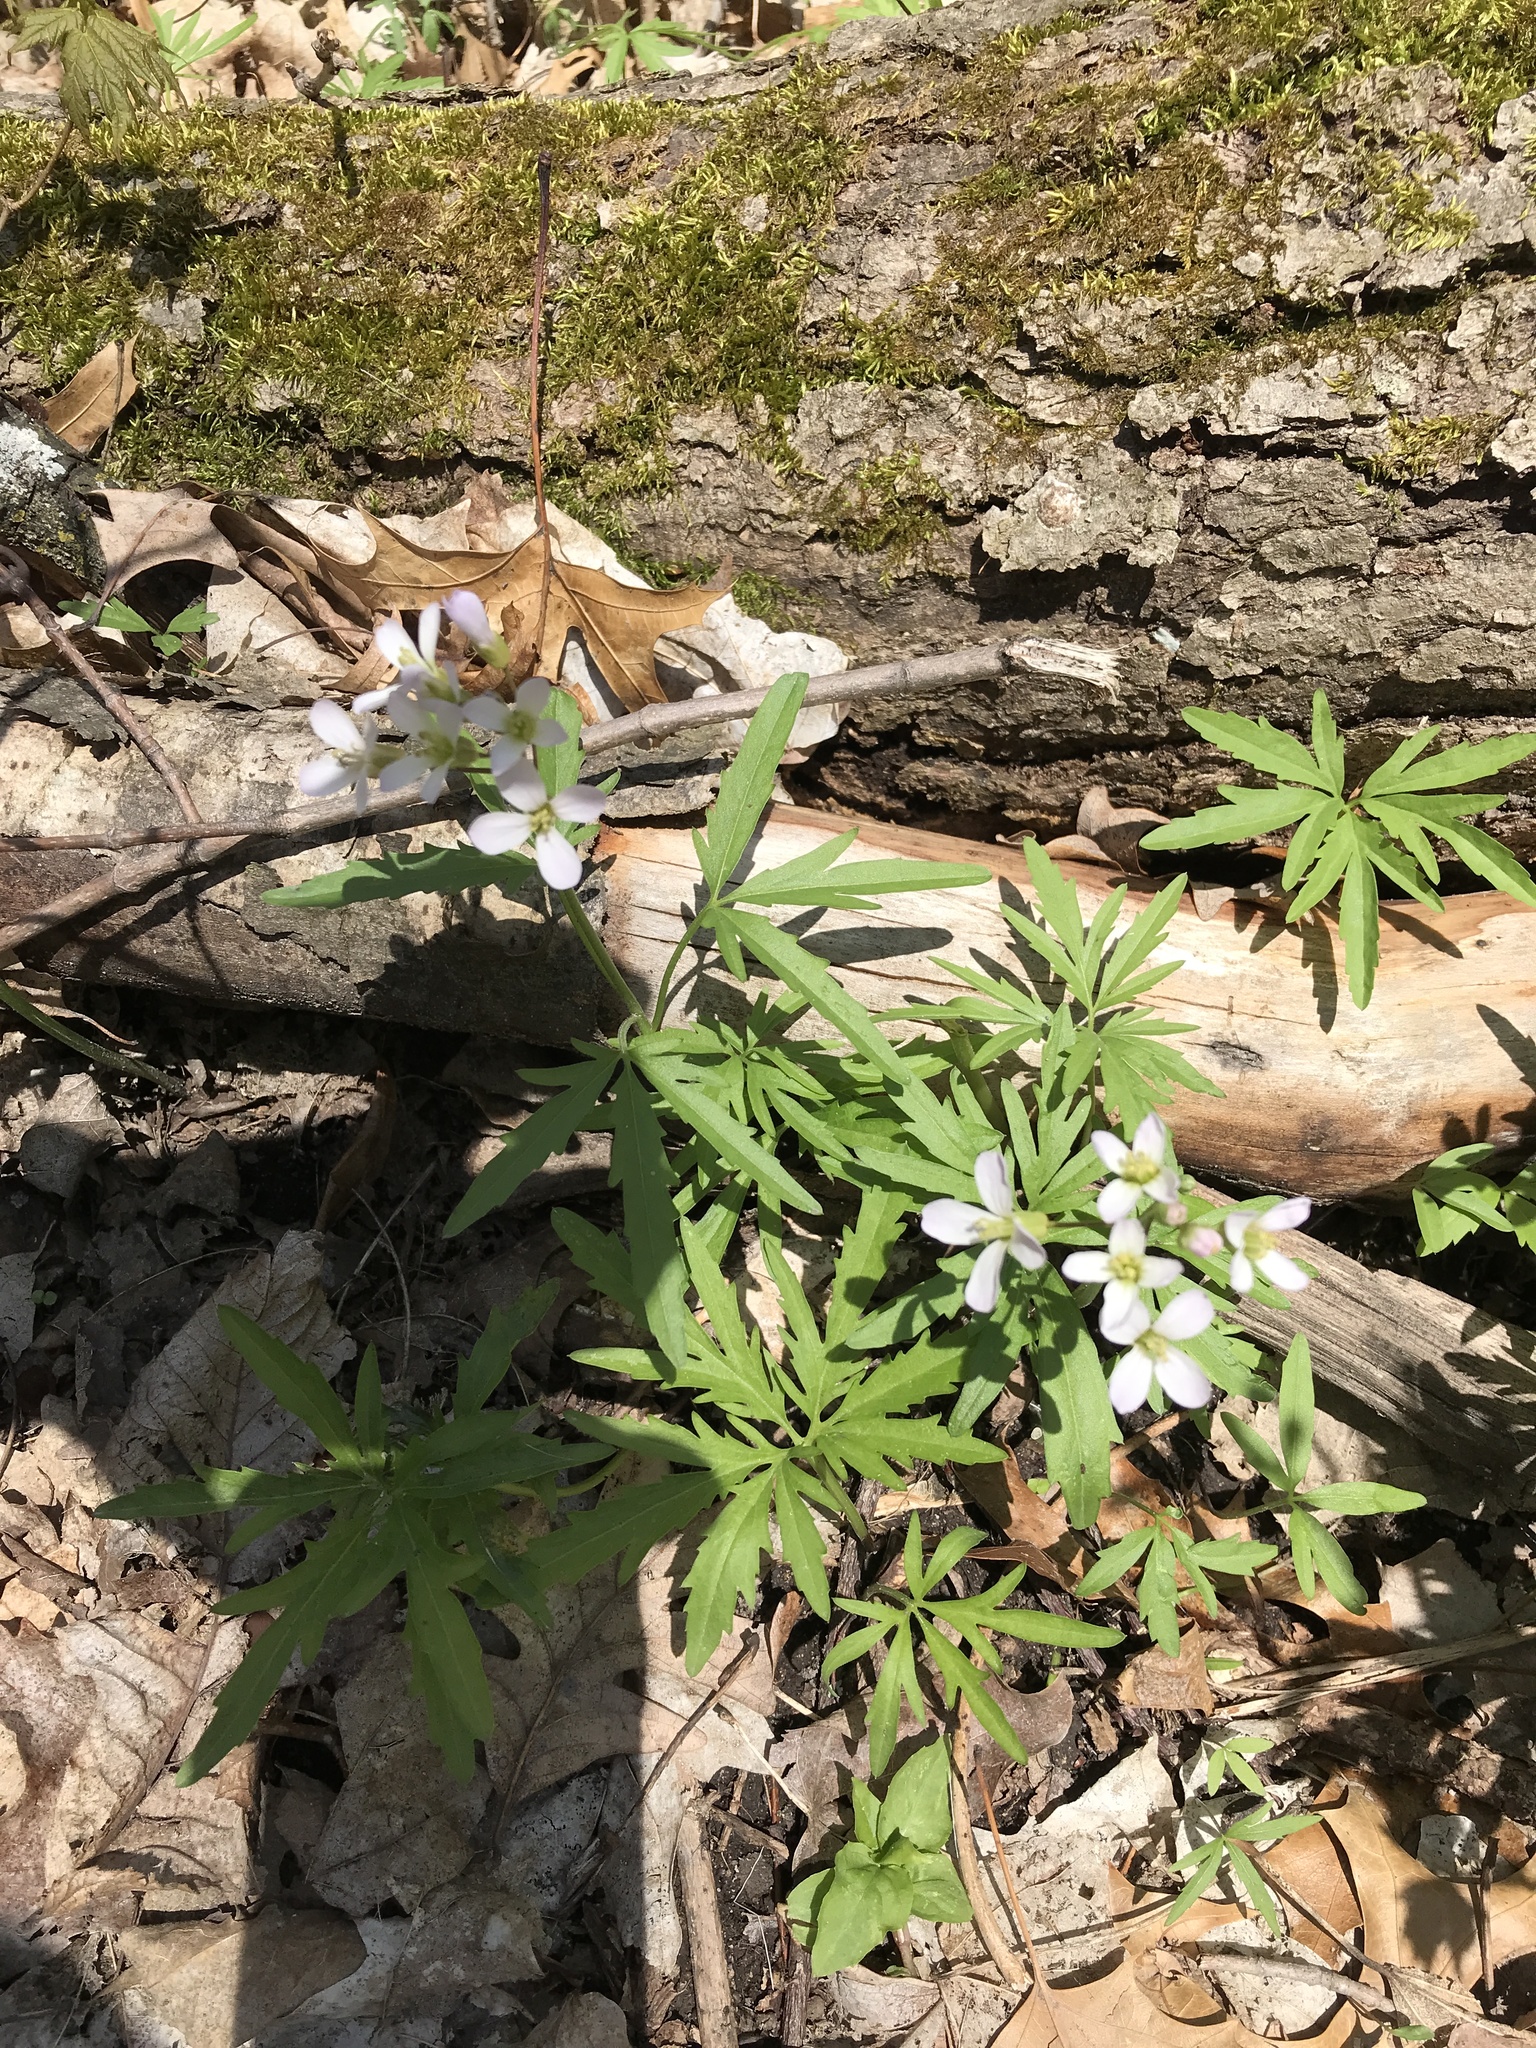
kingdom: Plantae
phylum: Tracheophyta
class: Magnoliopsida
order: Brassicales
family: Brassicaceae
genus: Cardamine
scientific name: Cardamine concatenata
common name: Cut-leaf toothcup
